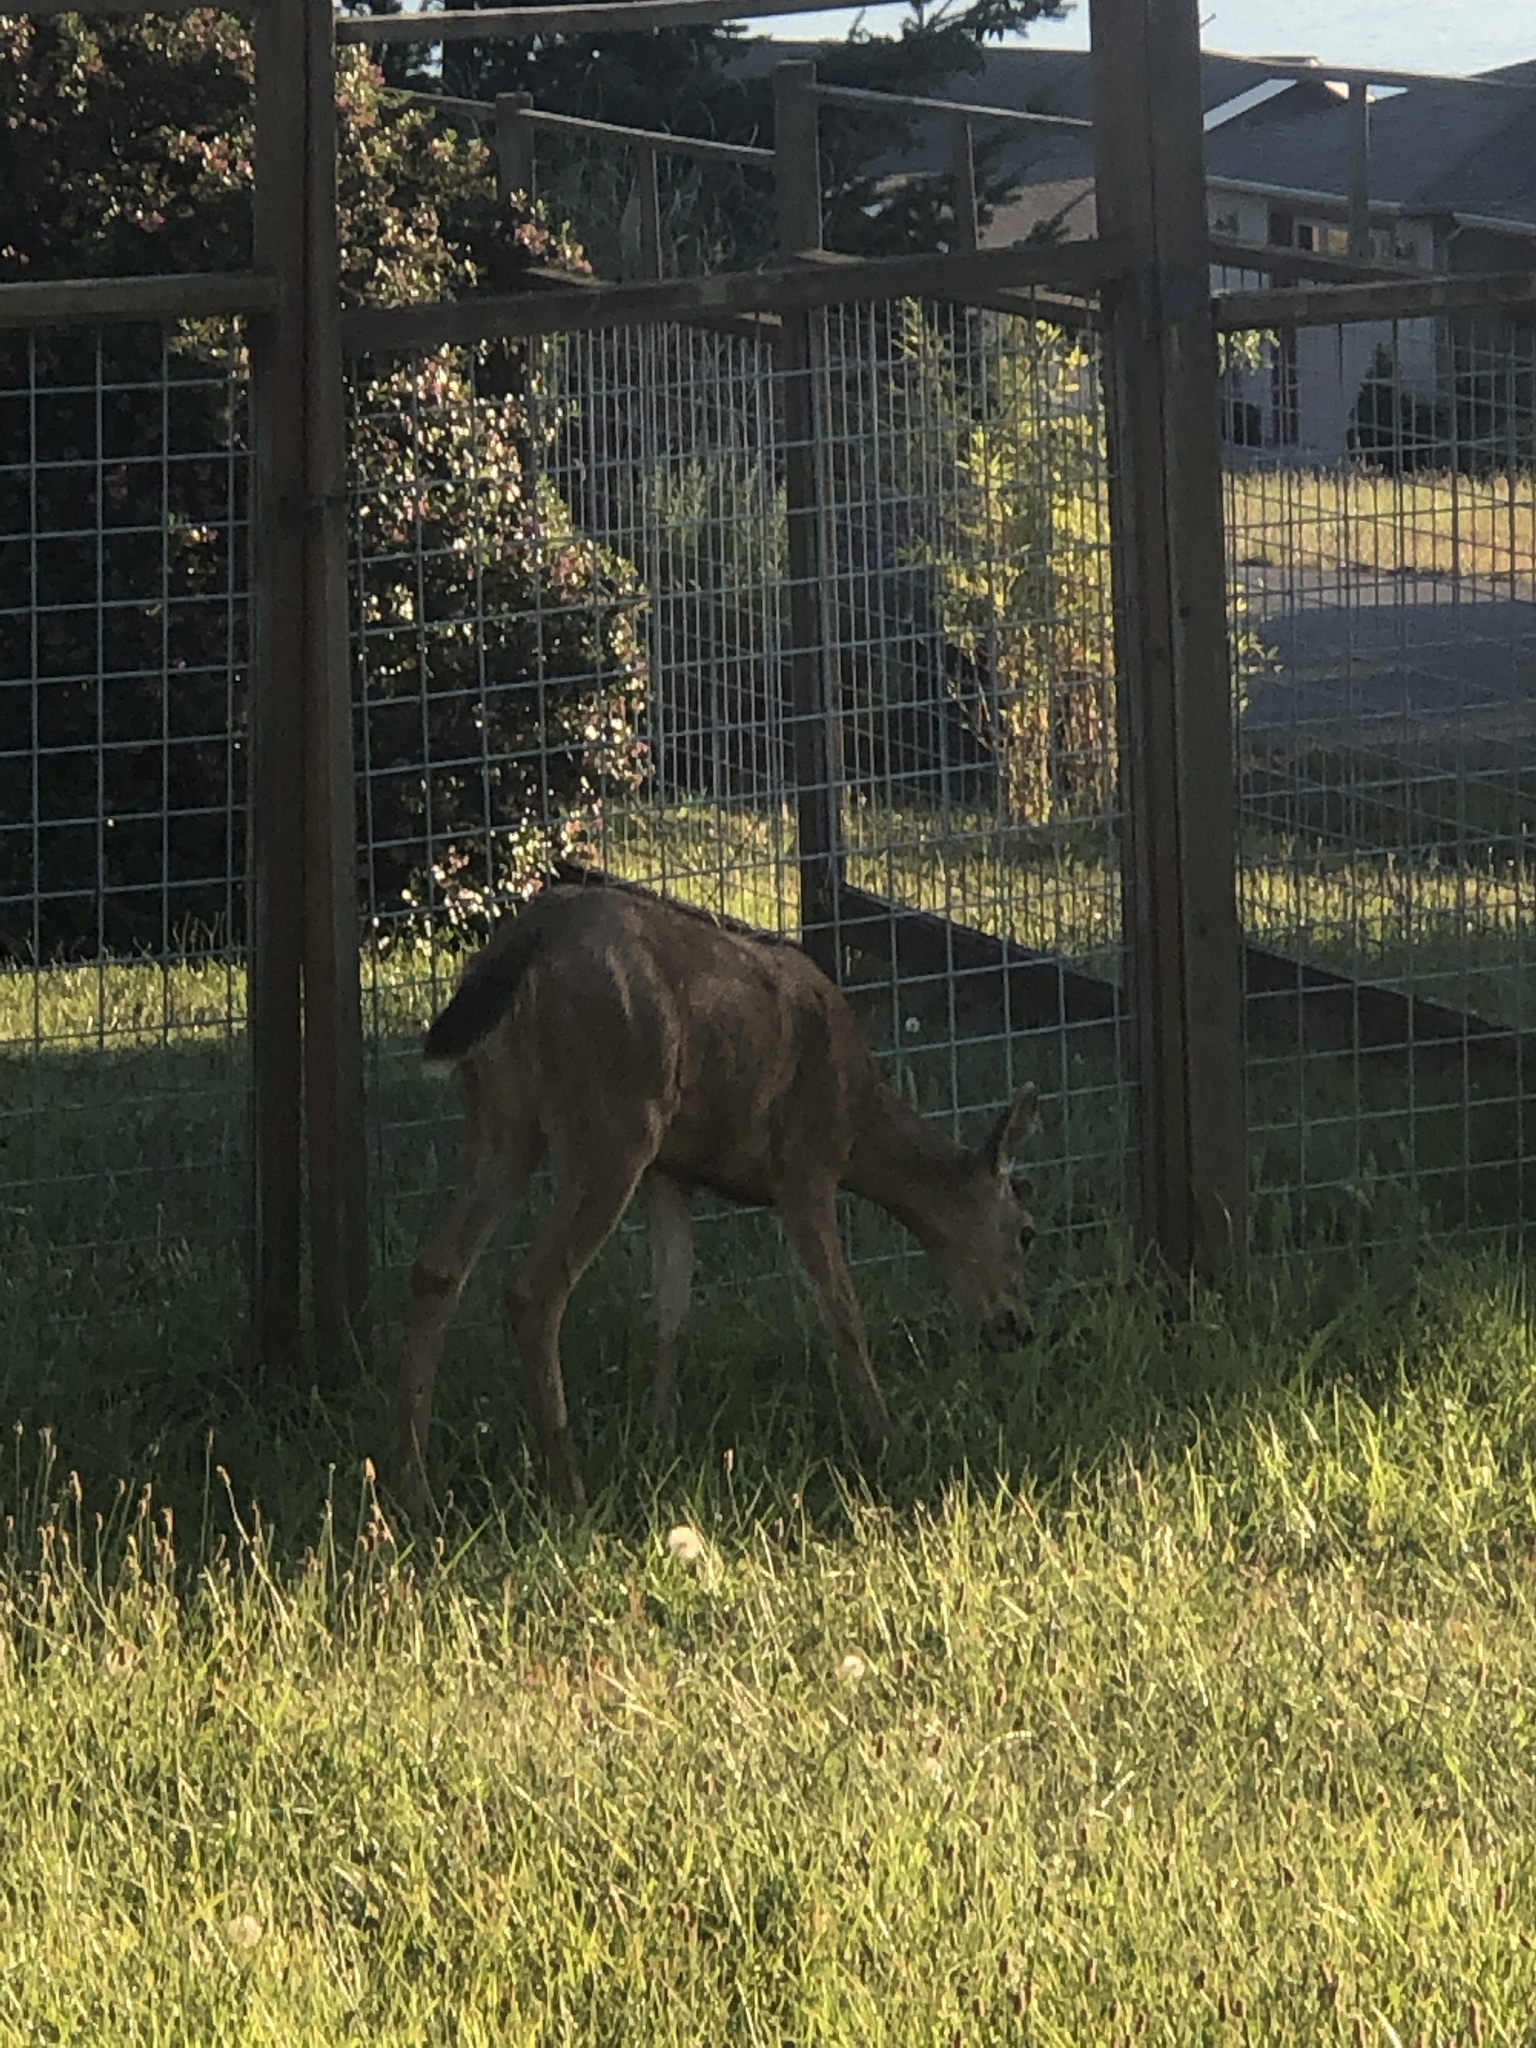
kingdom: Animalia
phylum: Chordata
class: Mammalia
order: Artiodactyla
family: Cervidae
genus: Odocoileus
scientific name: Odocoileus hemionus
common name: Mule deer
